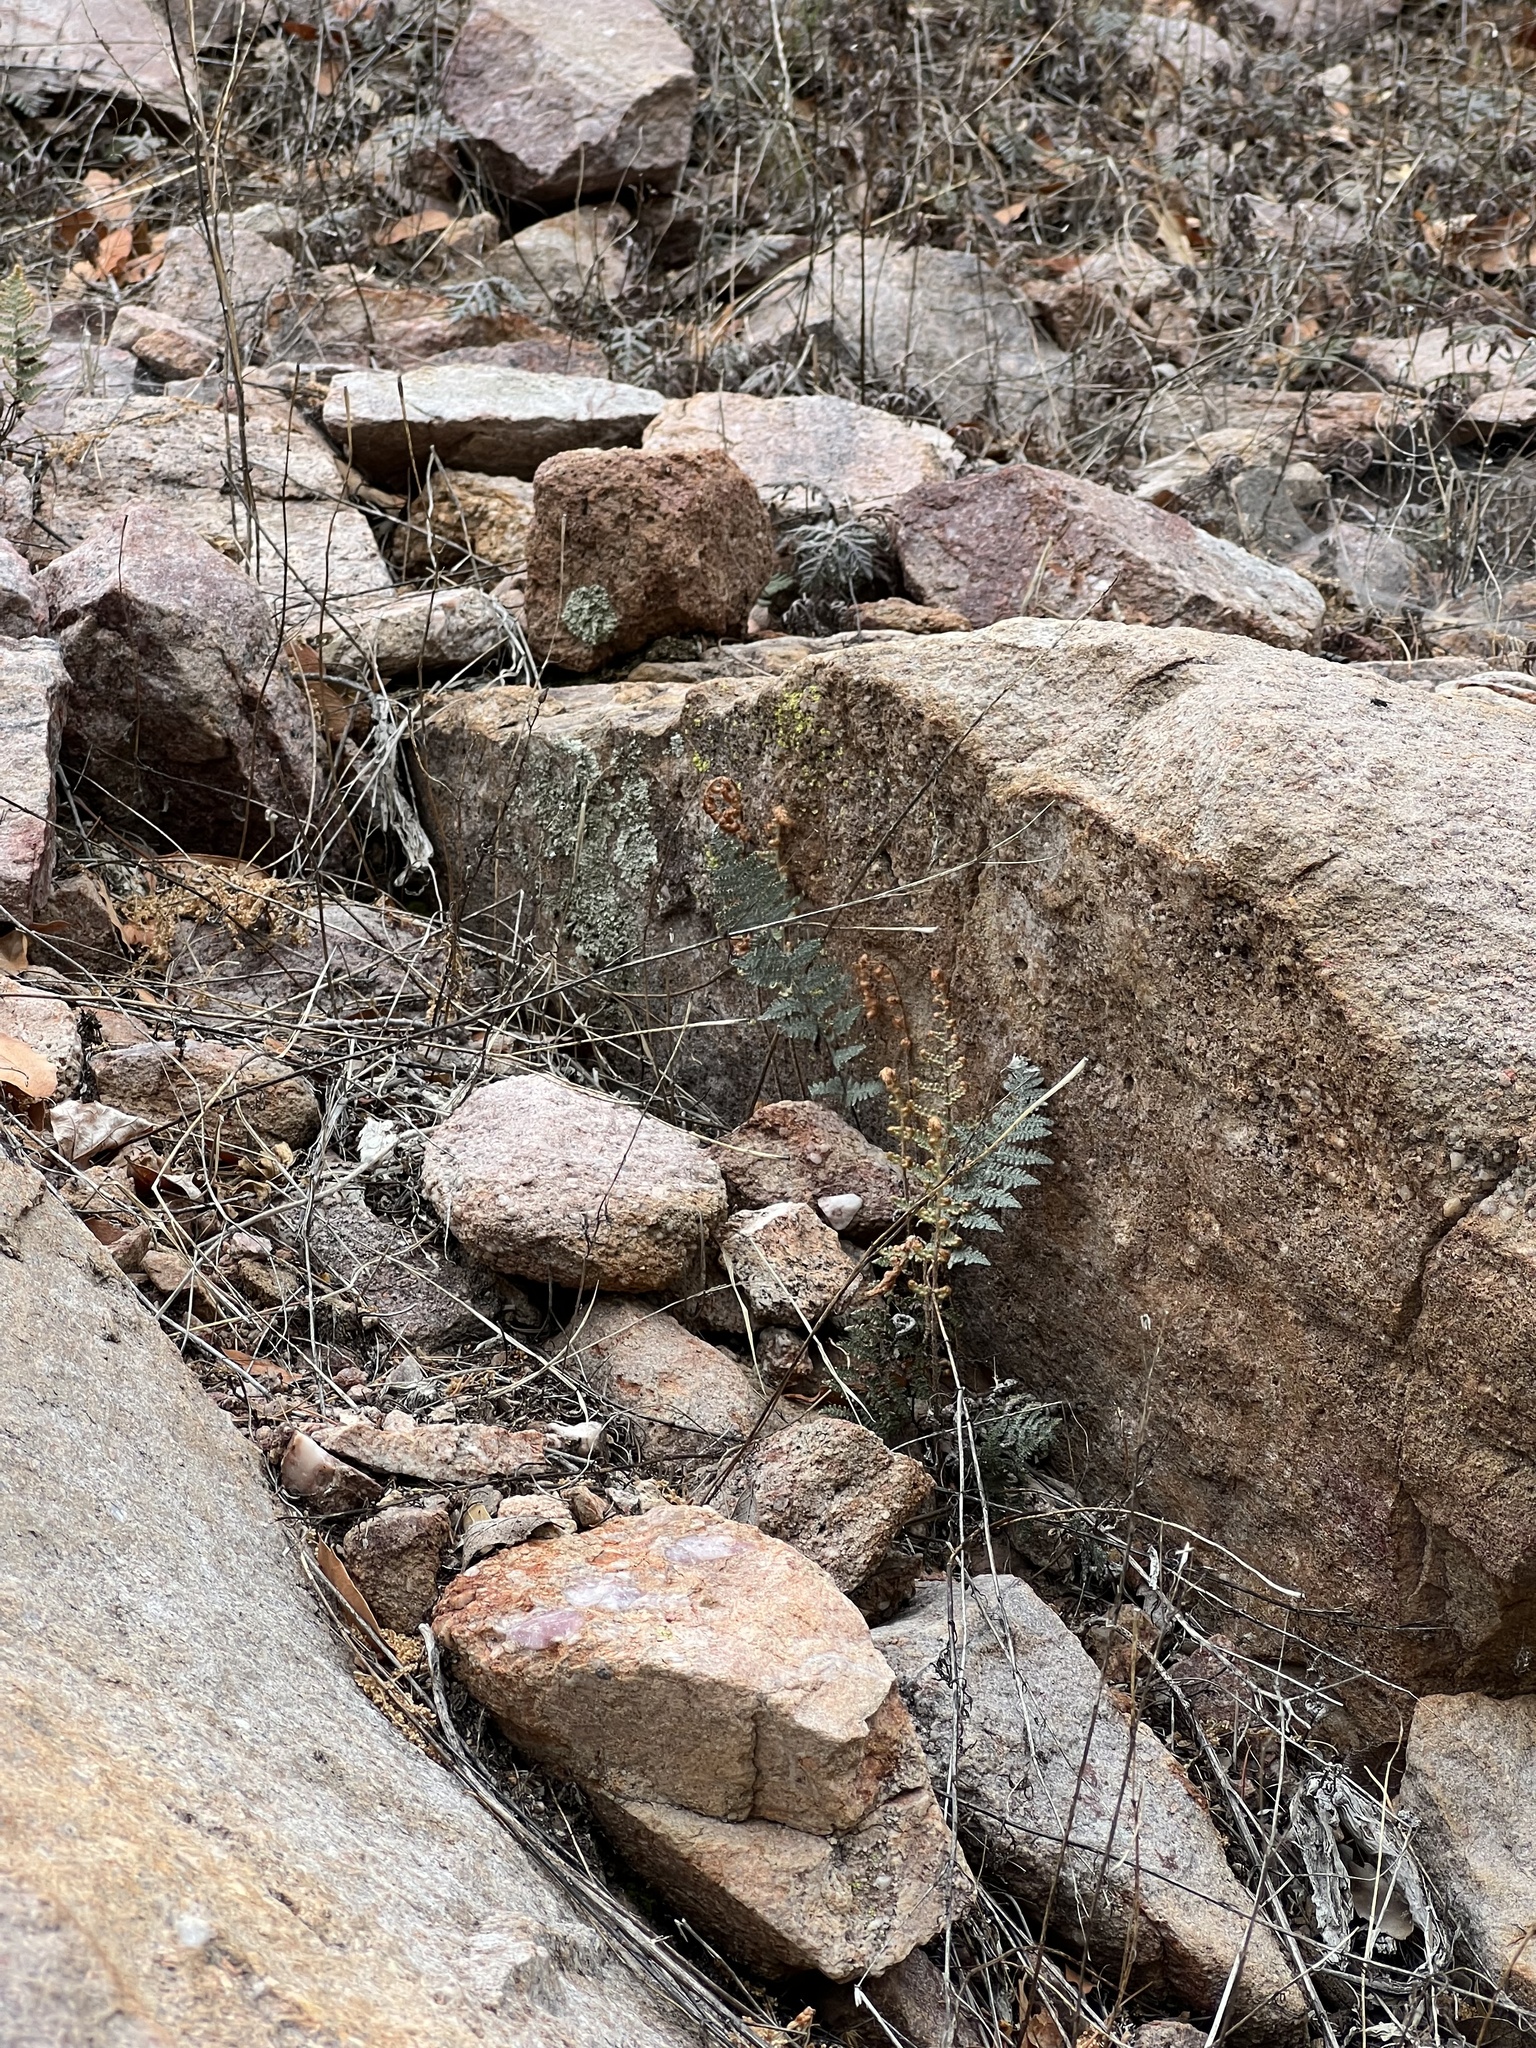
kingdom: Plantae
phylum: Tracheophyta
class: Polypodiopsida
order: Polypodiales
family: Pteridaceae
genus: Myriopteris
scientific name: Myriopteris lindheimeri
